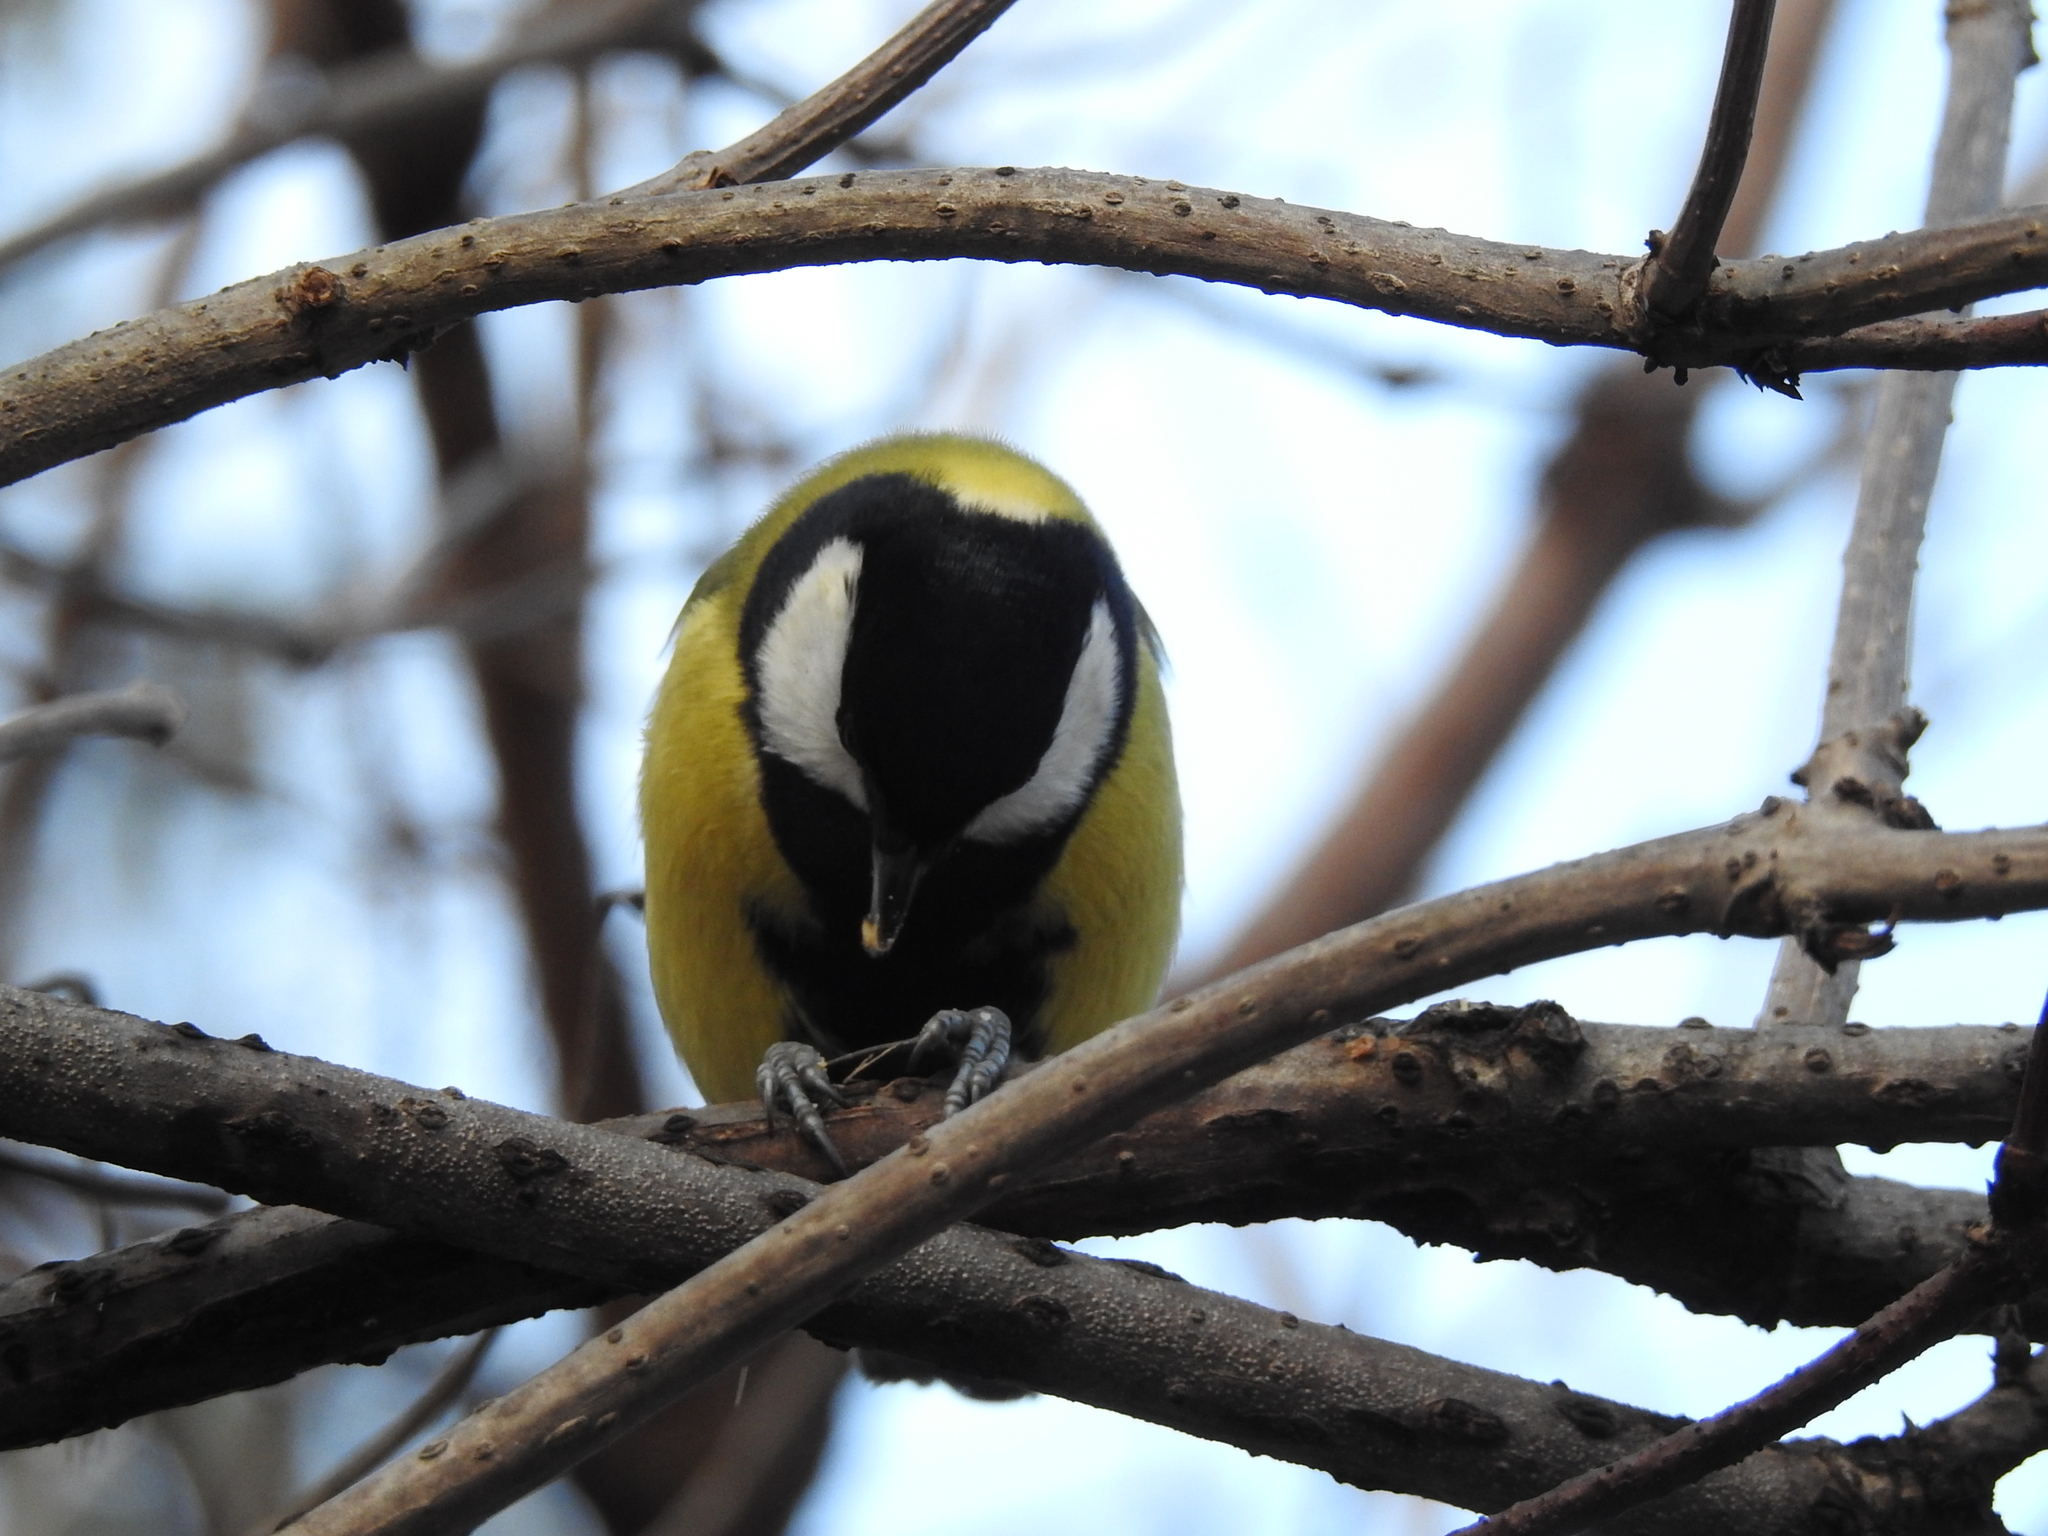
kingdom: Animalia
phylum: Chordata
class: Aves
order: Passeriformes
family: Paridae
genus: Parus
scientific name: Parus major
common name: Great tit
